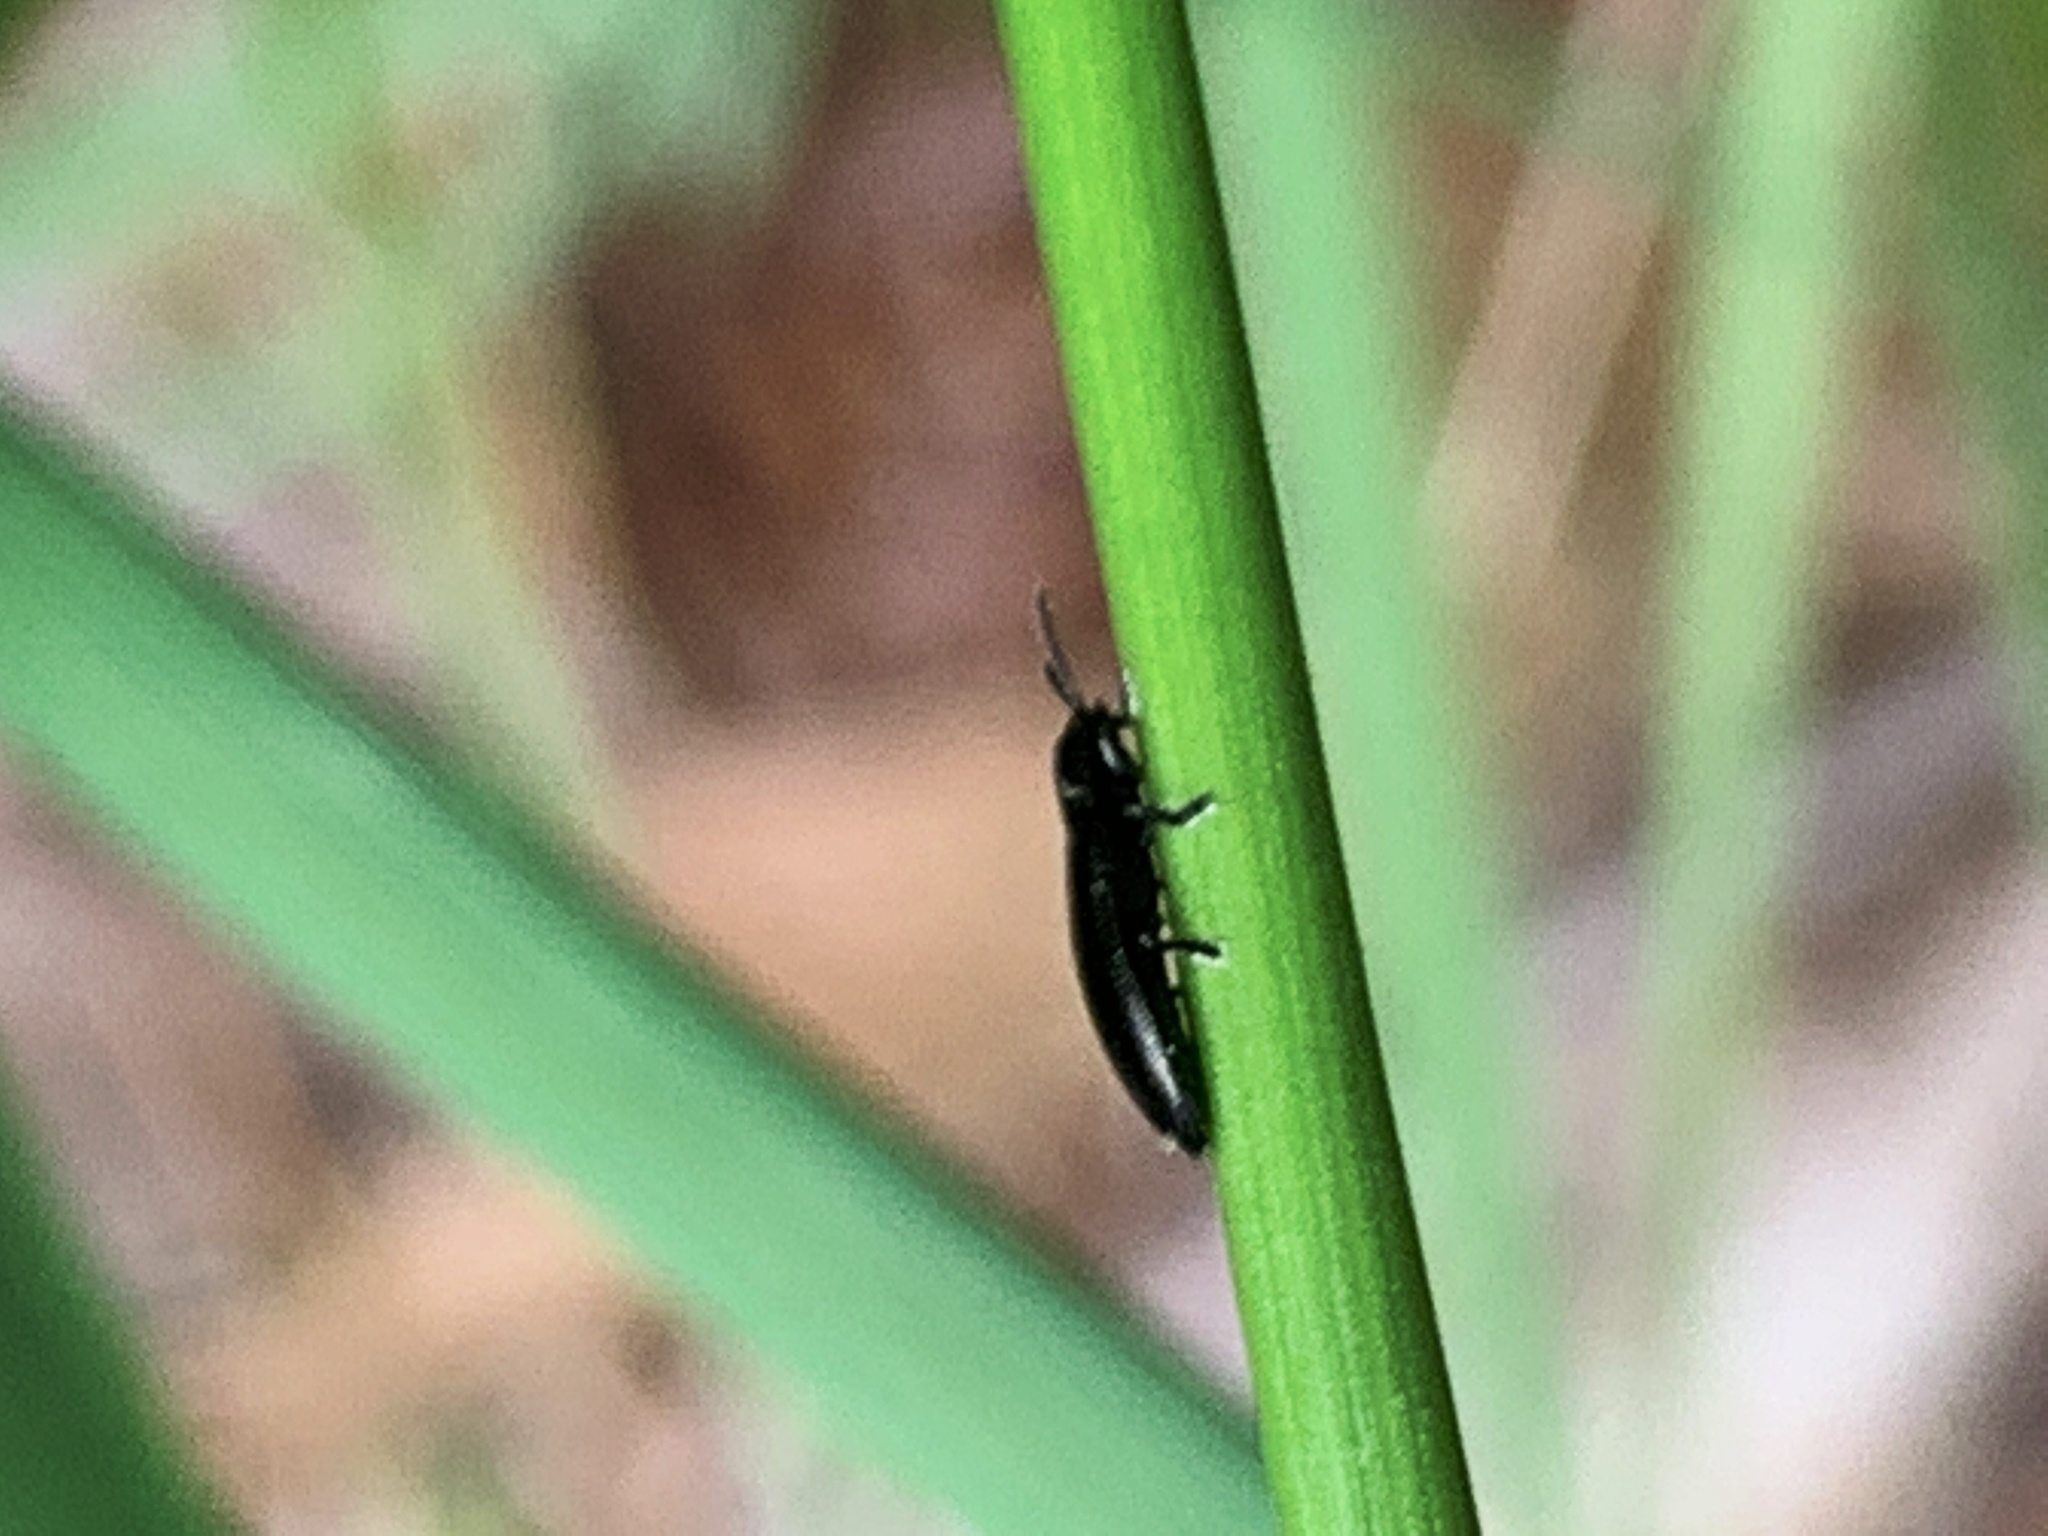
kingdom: Animalia
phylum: Arthropoda
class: Insecta
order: Coleoptera
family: Chrysomelidae
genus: Stenispa
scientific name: Stenispa metallica
